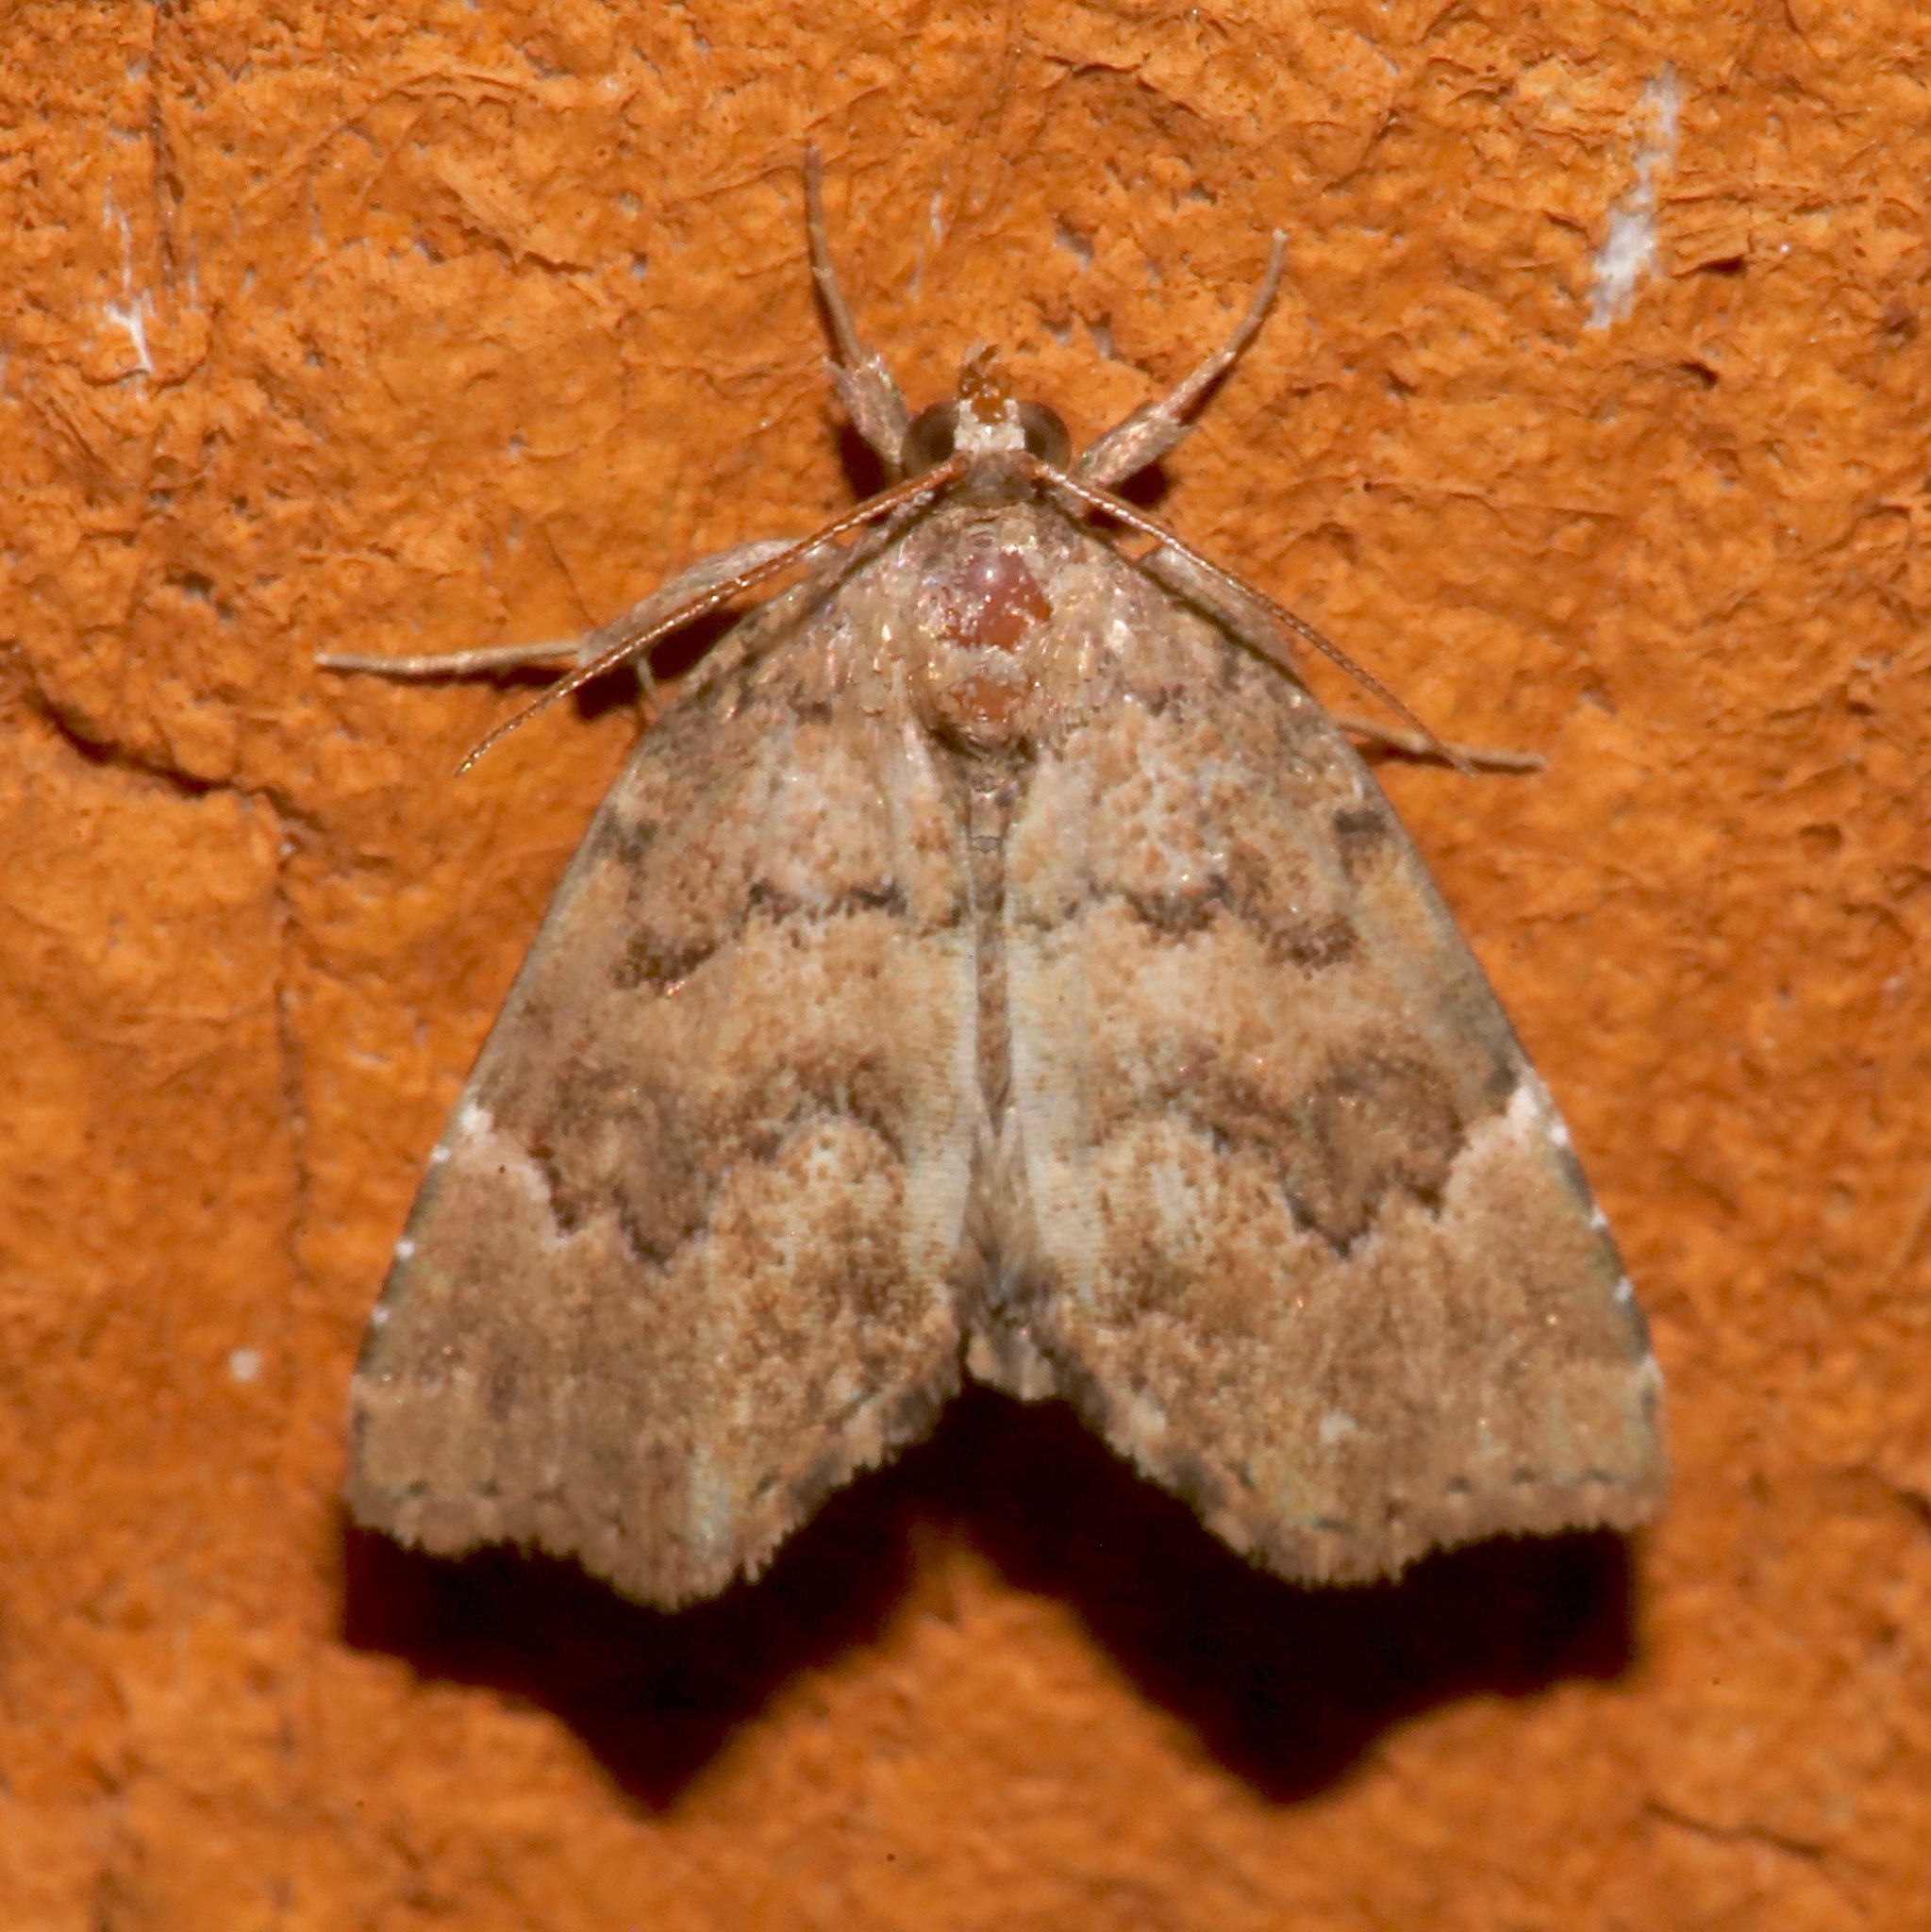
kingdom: Animalia
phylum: Arthropoda
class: Insecta
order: Lepidoptera
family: Erebidae
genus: Cutina
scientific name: Cutina aluticolor
